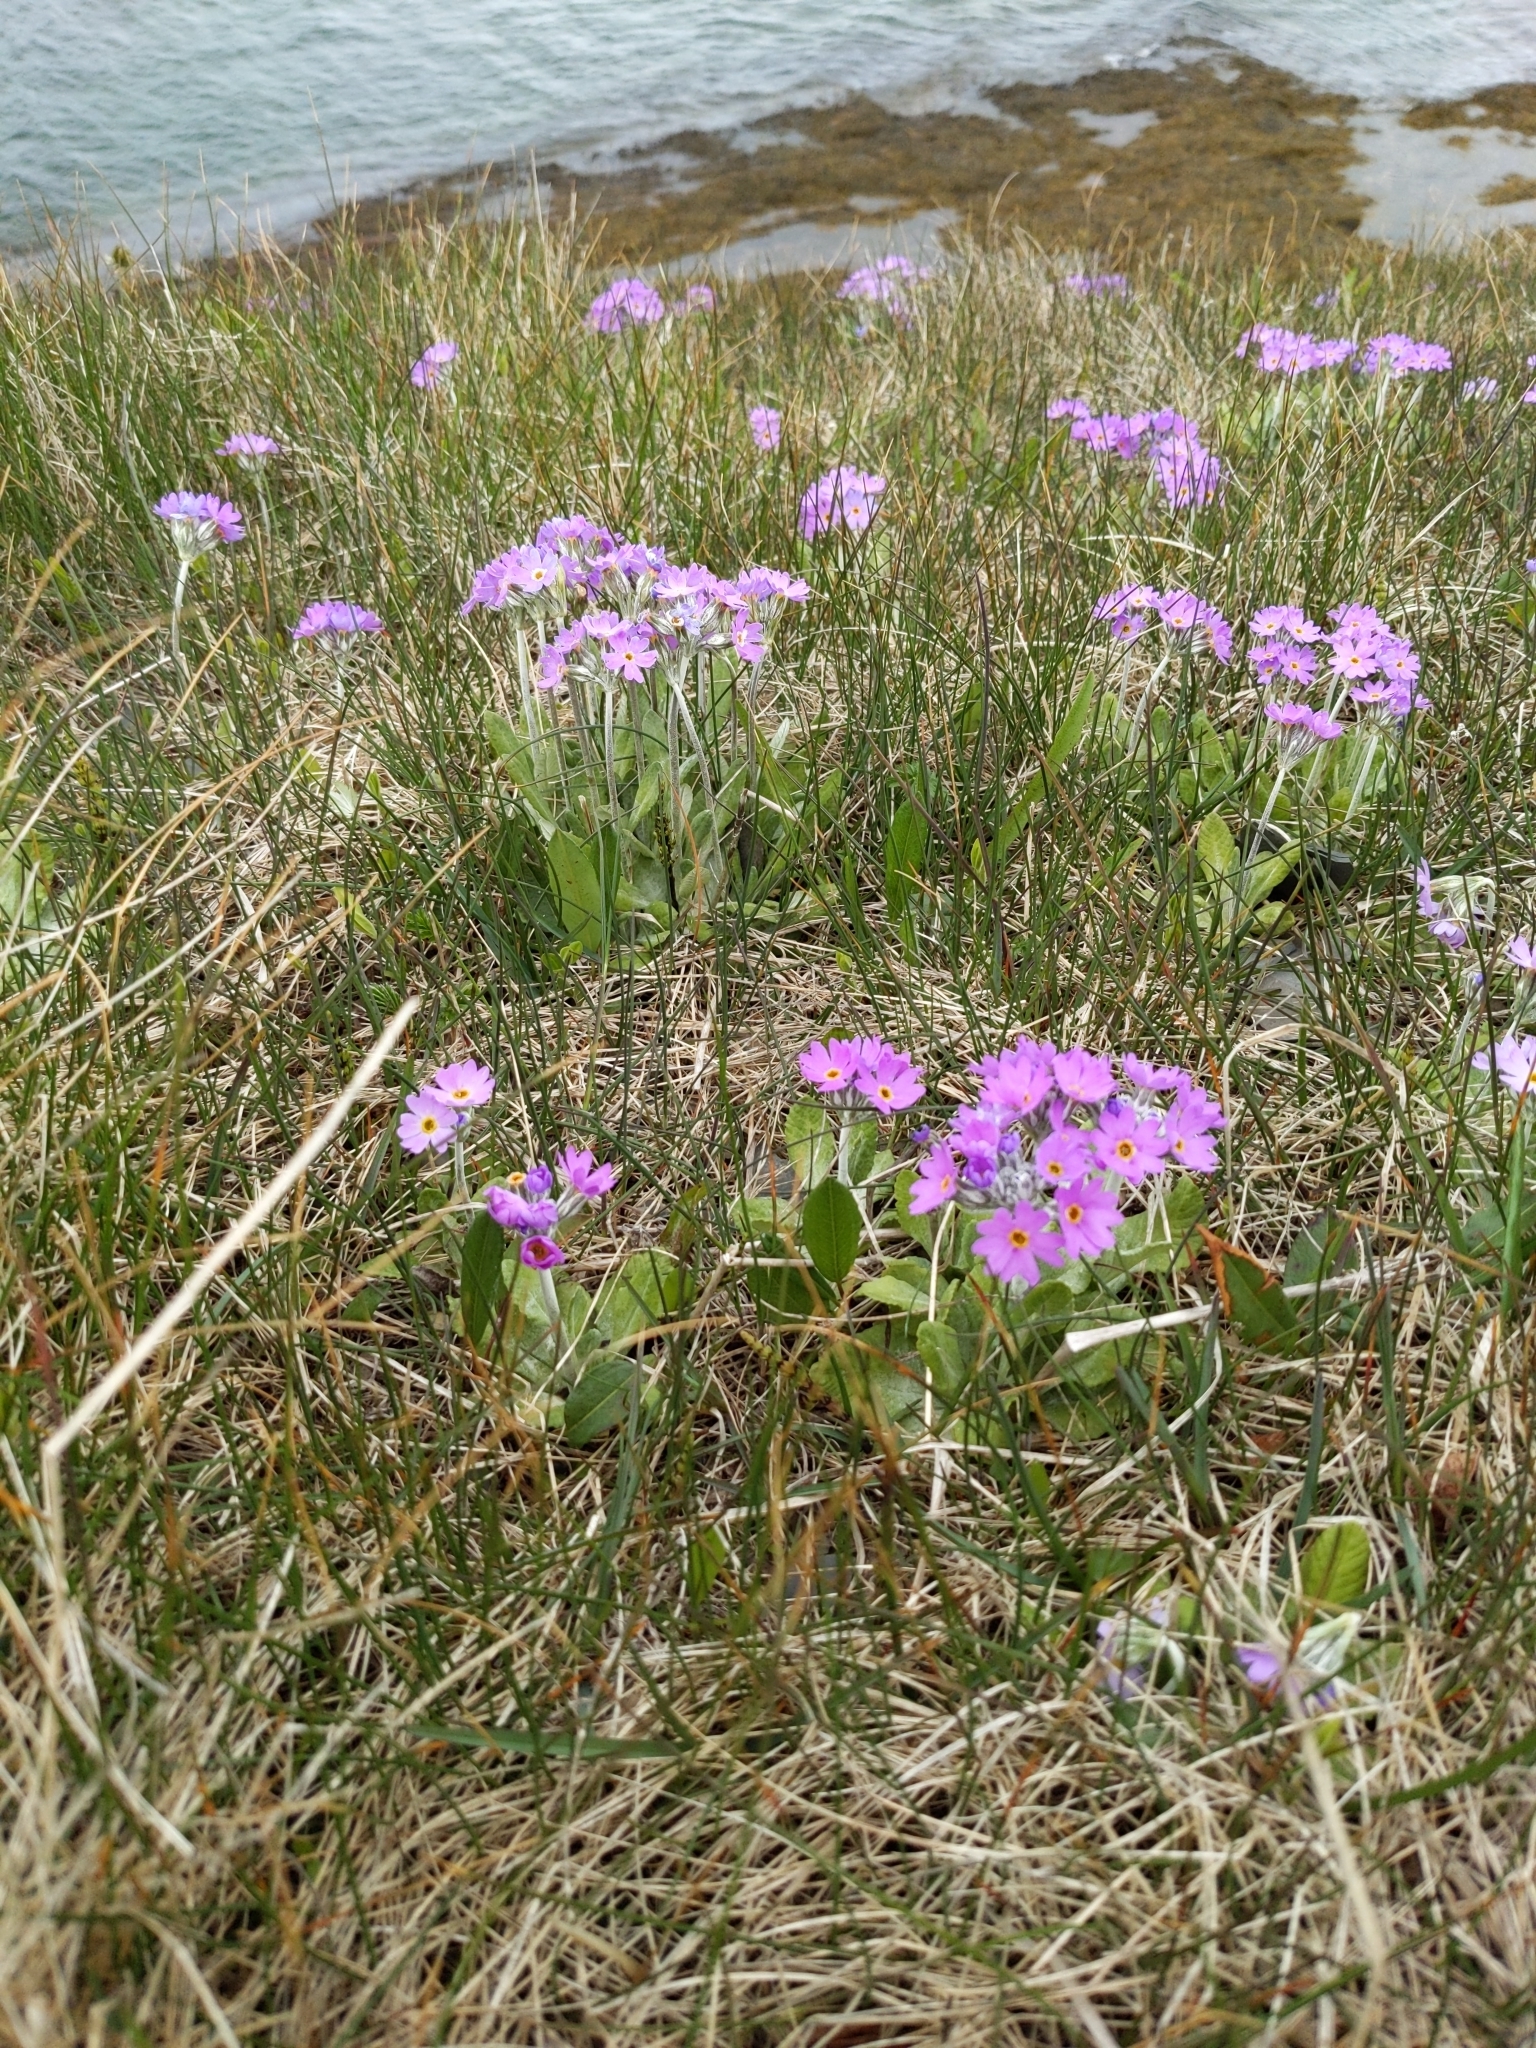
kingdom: Plantae
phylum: Tracheophyta
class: Magnoliopsida
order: Ericales
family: Primulaceae
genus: Primula
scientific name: Primula laurentiana
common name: Bird-eye primrose
